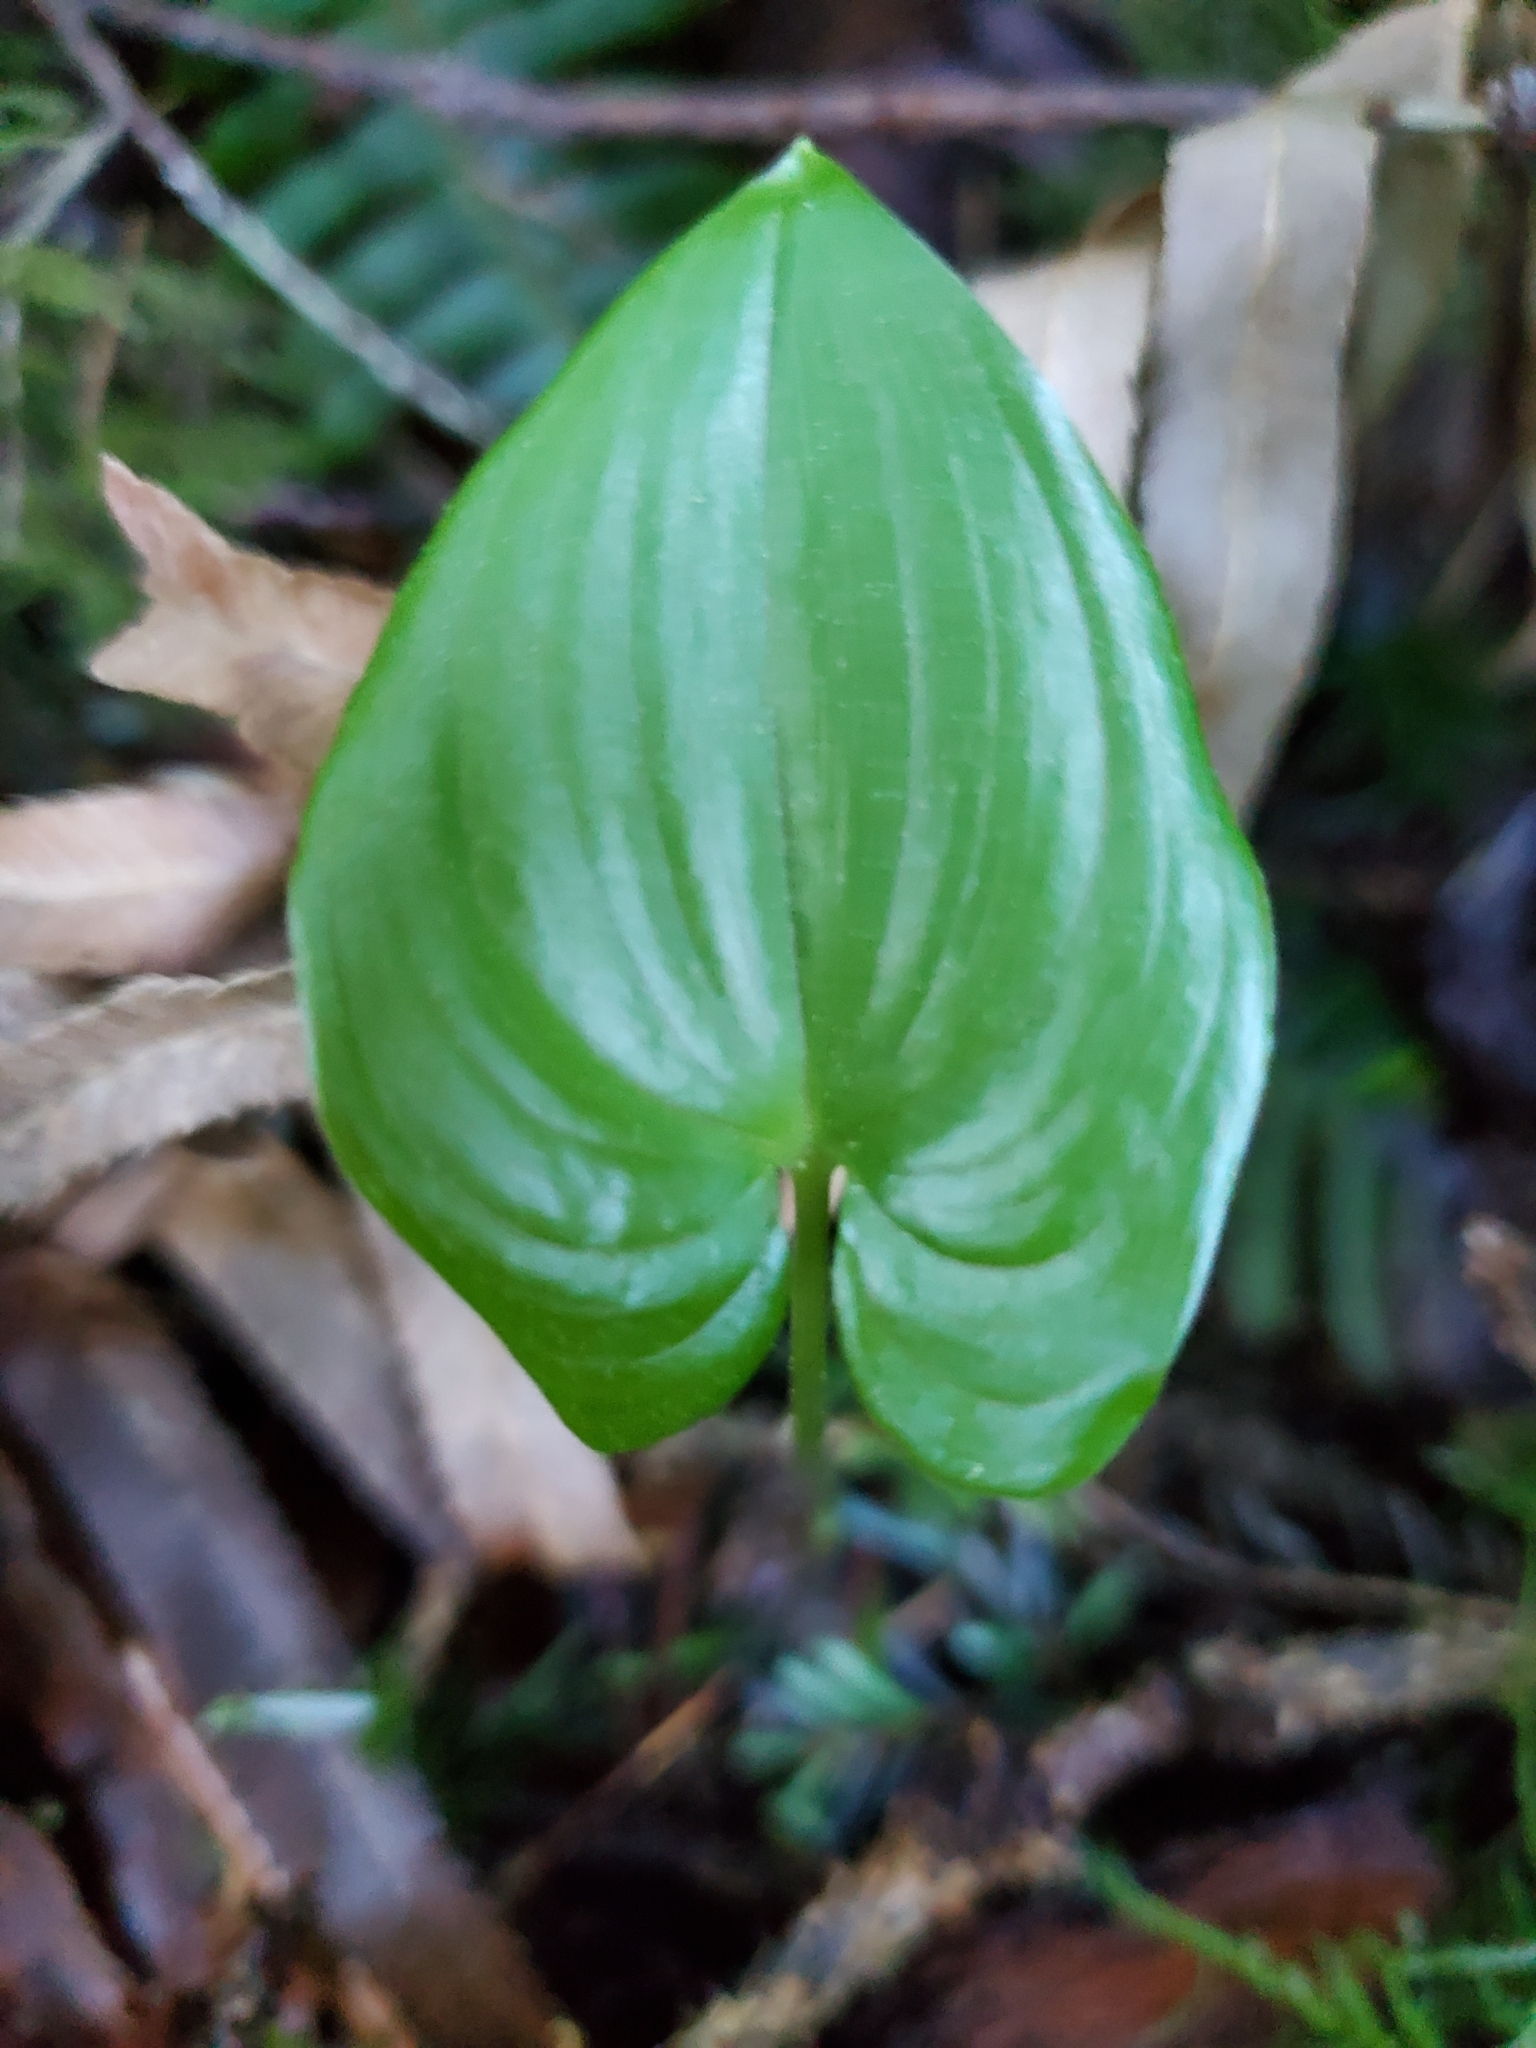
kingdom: Plantae
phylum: Tracheophyta
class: Liliopsida
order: Asparagales
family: Asparagaceae
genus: Maianthemum
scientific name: Maianthemum dilatatum
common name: False lily-of-the-valley
